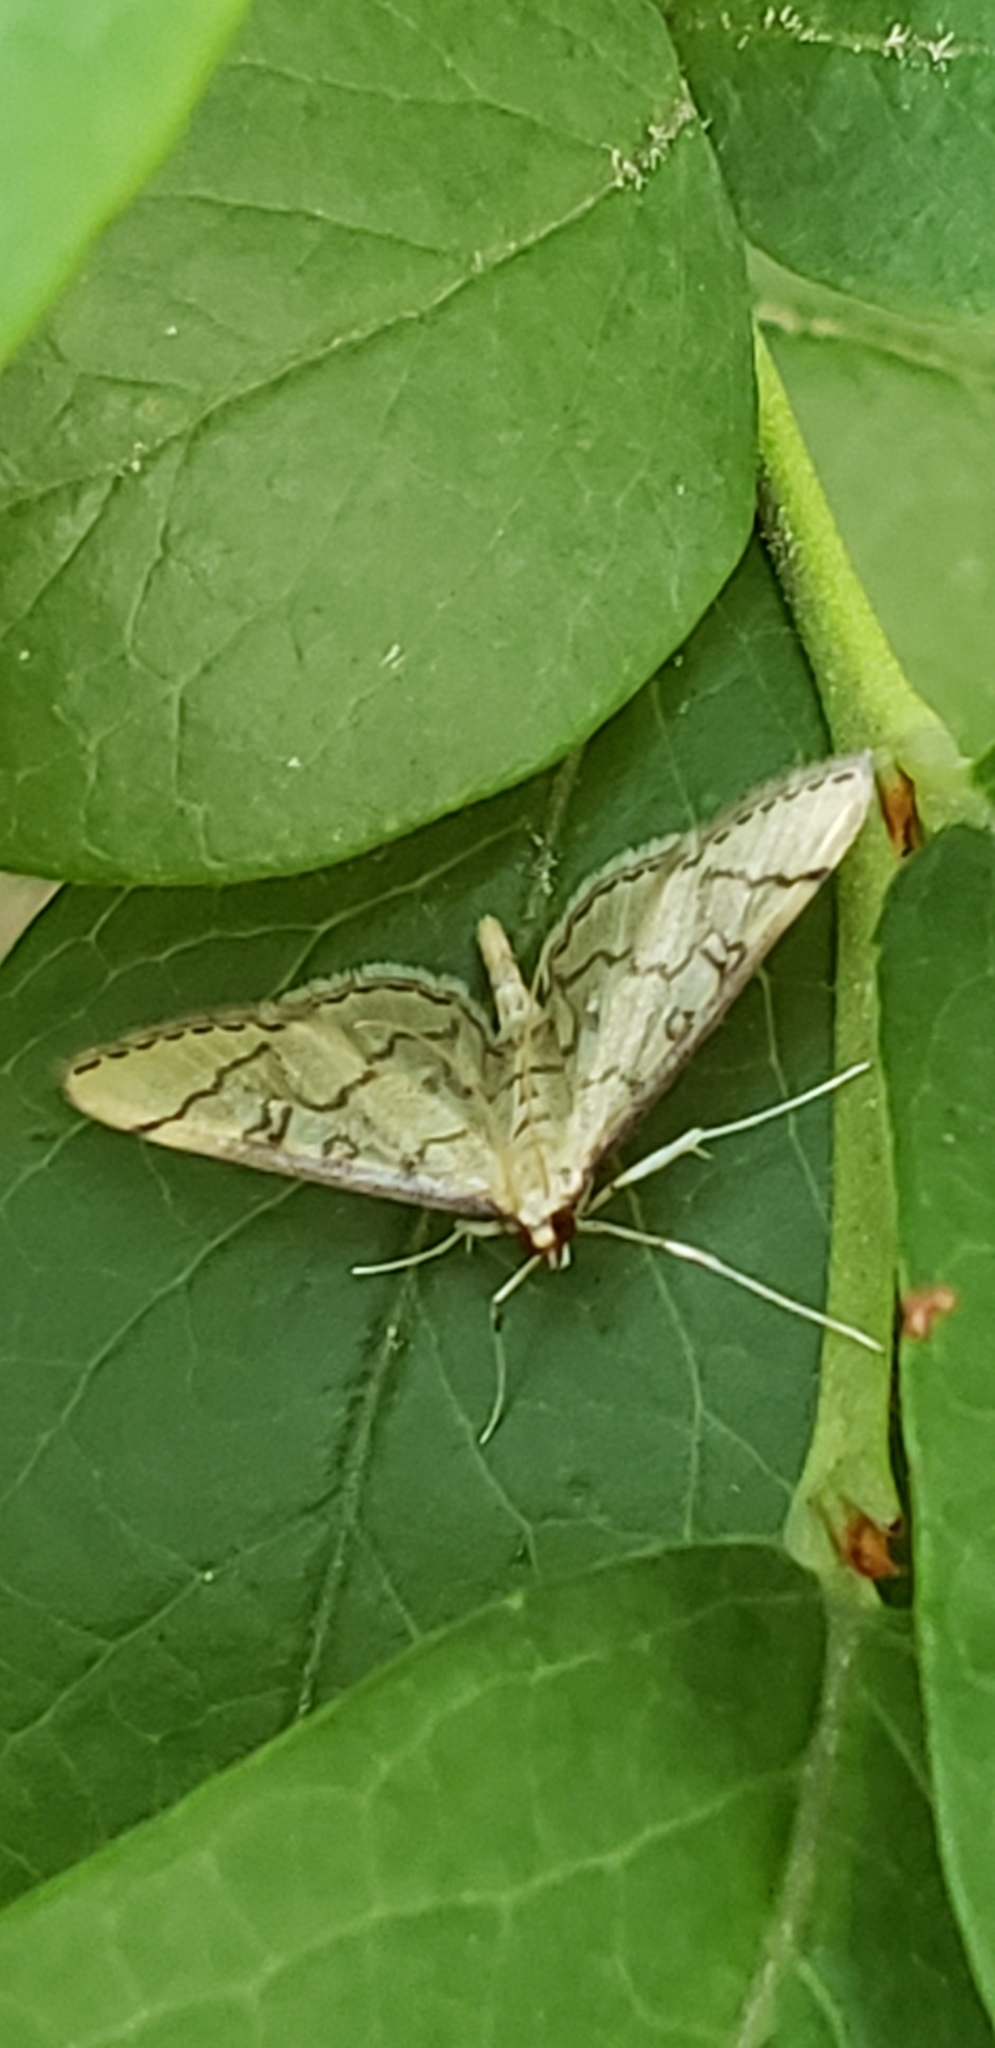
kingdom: Animalia
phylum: Arthropoda
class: Insecta
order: Lepidoptera
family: Crambidae
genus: Lamprosema
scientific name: Lamprosema Blepharomastix ranalis
